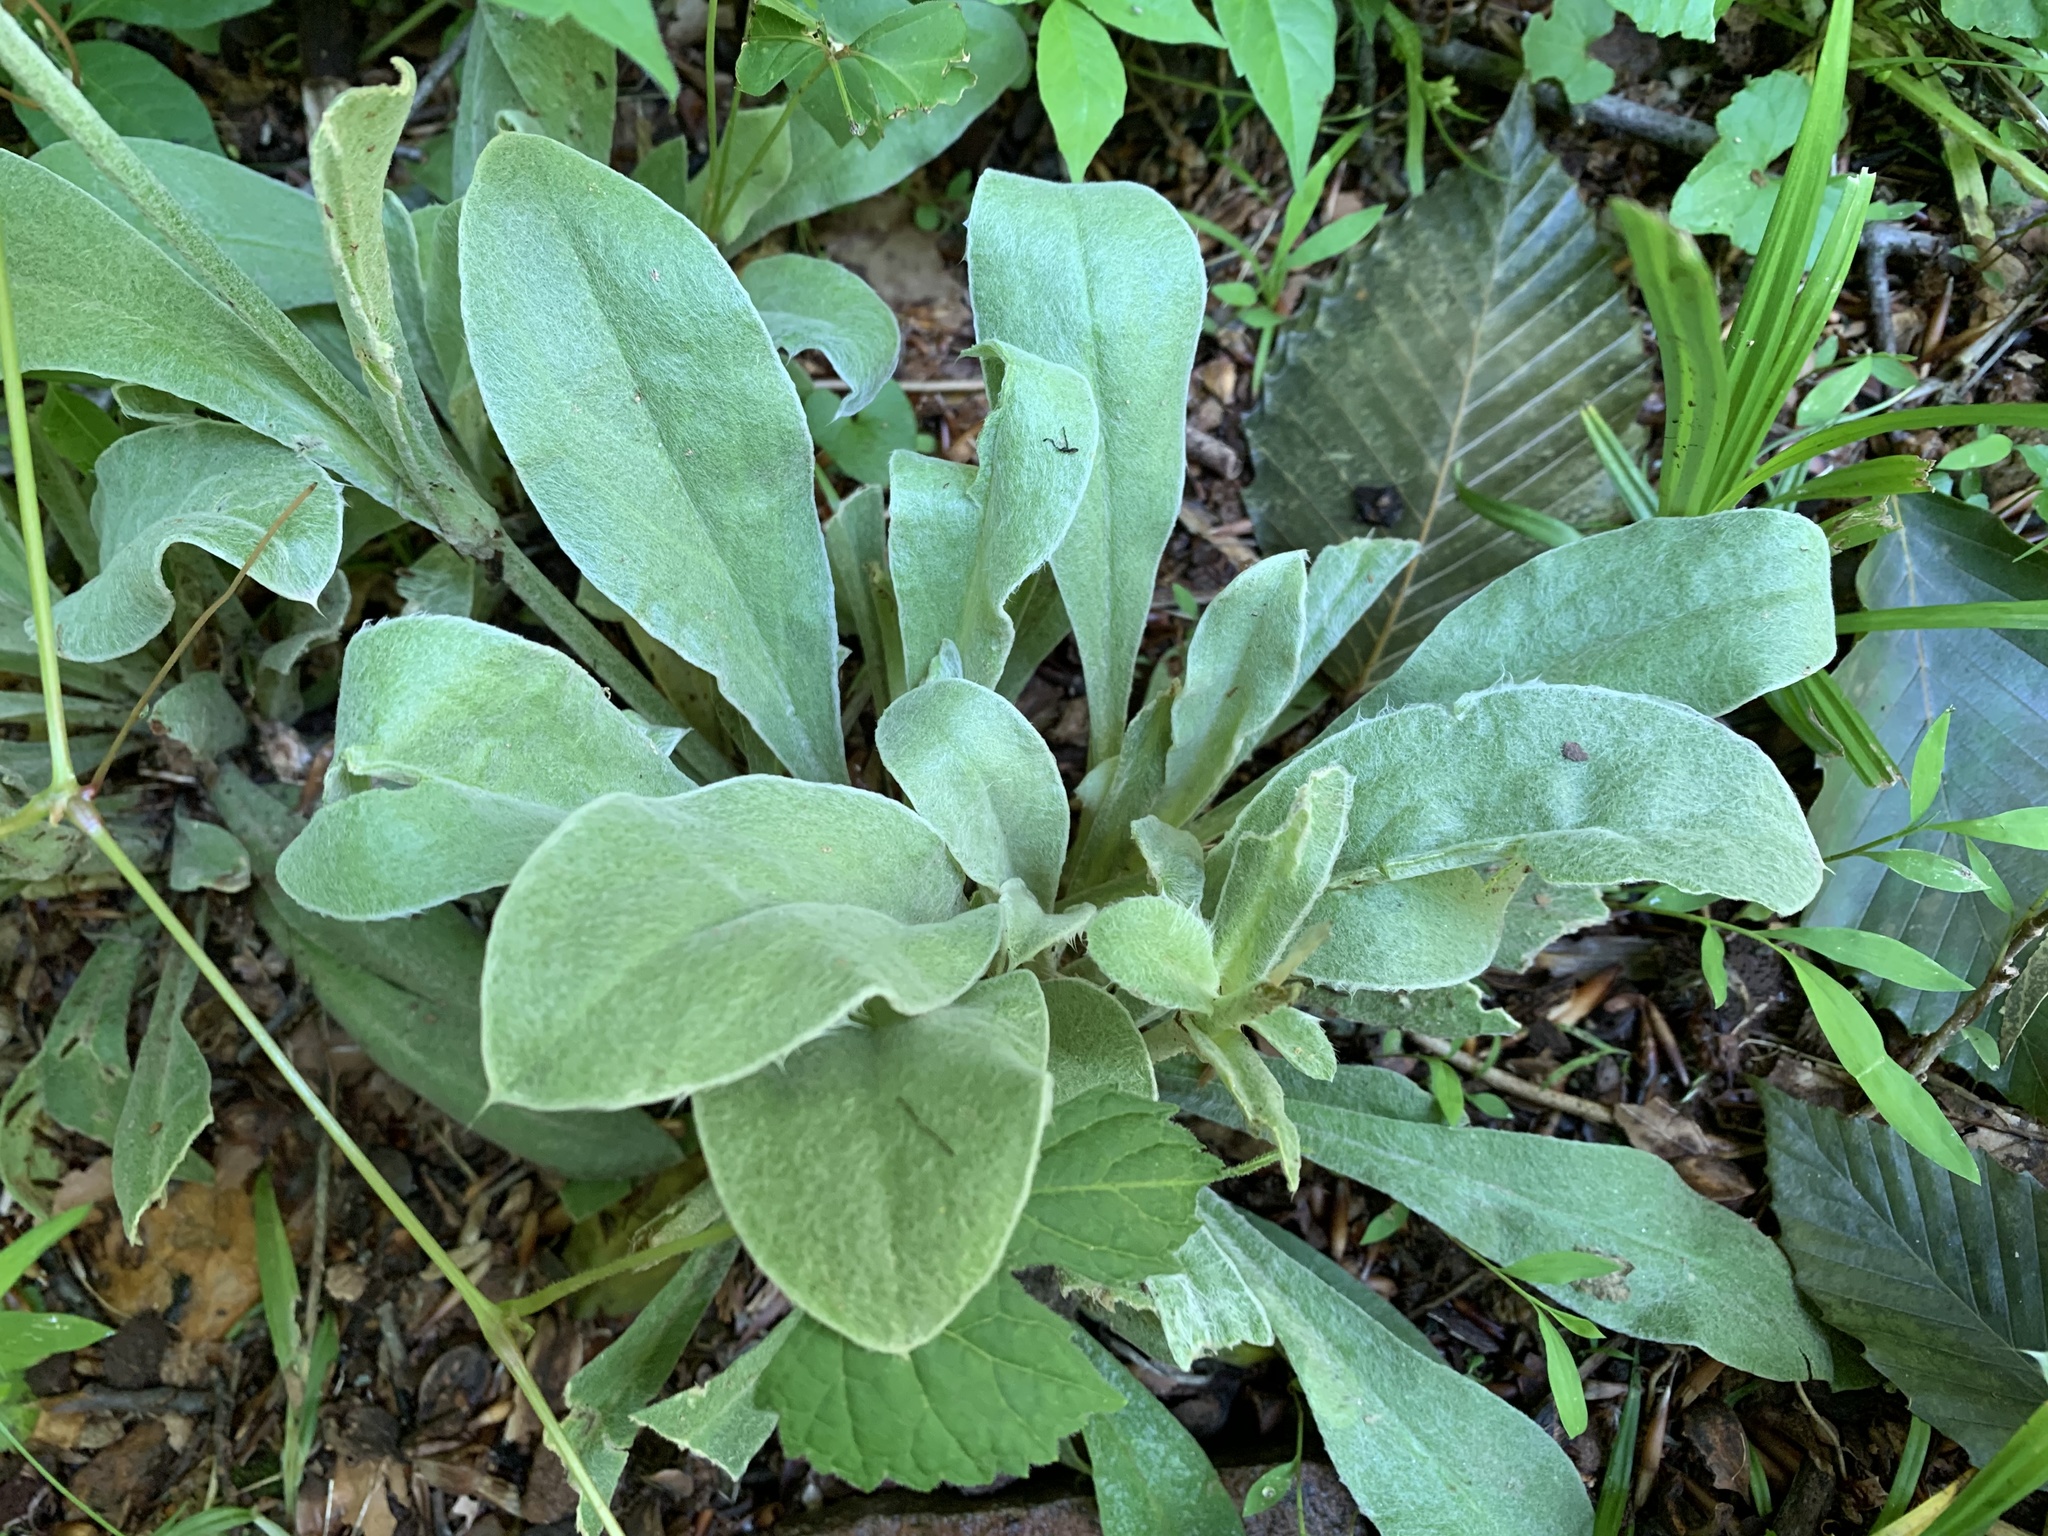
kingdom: Plantae
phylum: Tracheophyta
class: Magnoliopsida
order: Caryophyllales
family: Caryophyllaceae
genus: Silene
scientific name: Silene coronaria
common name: Rose campion
